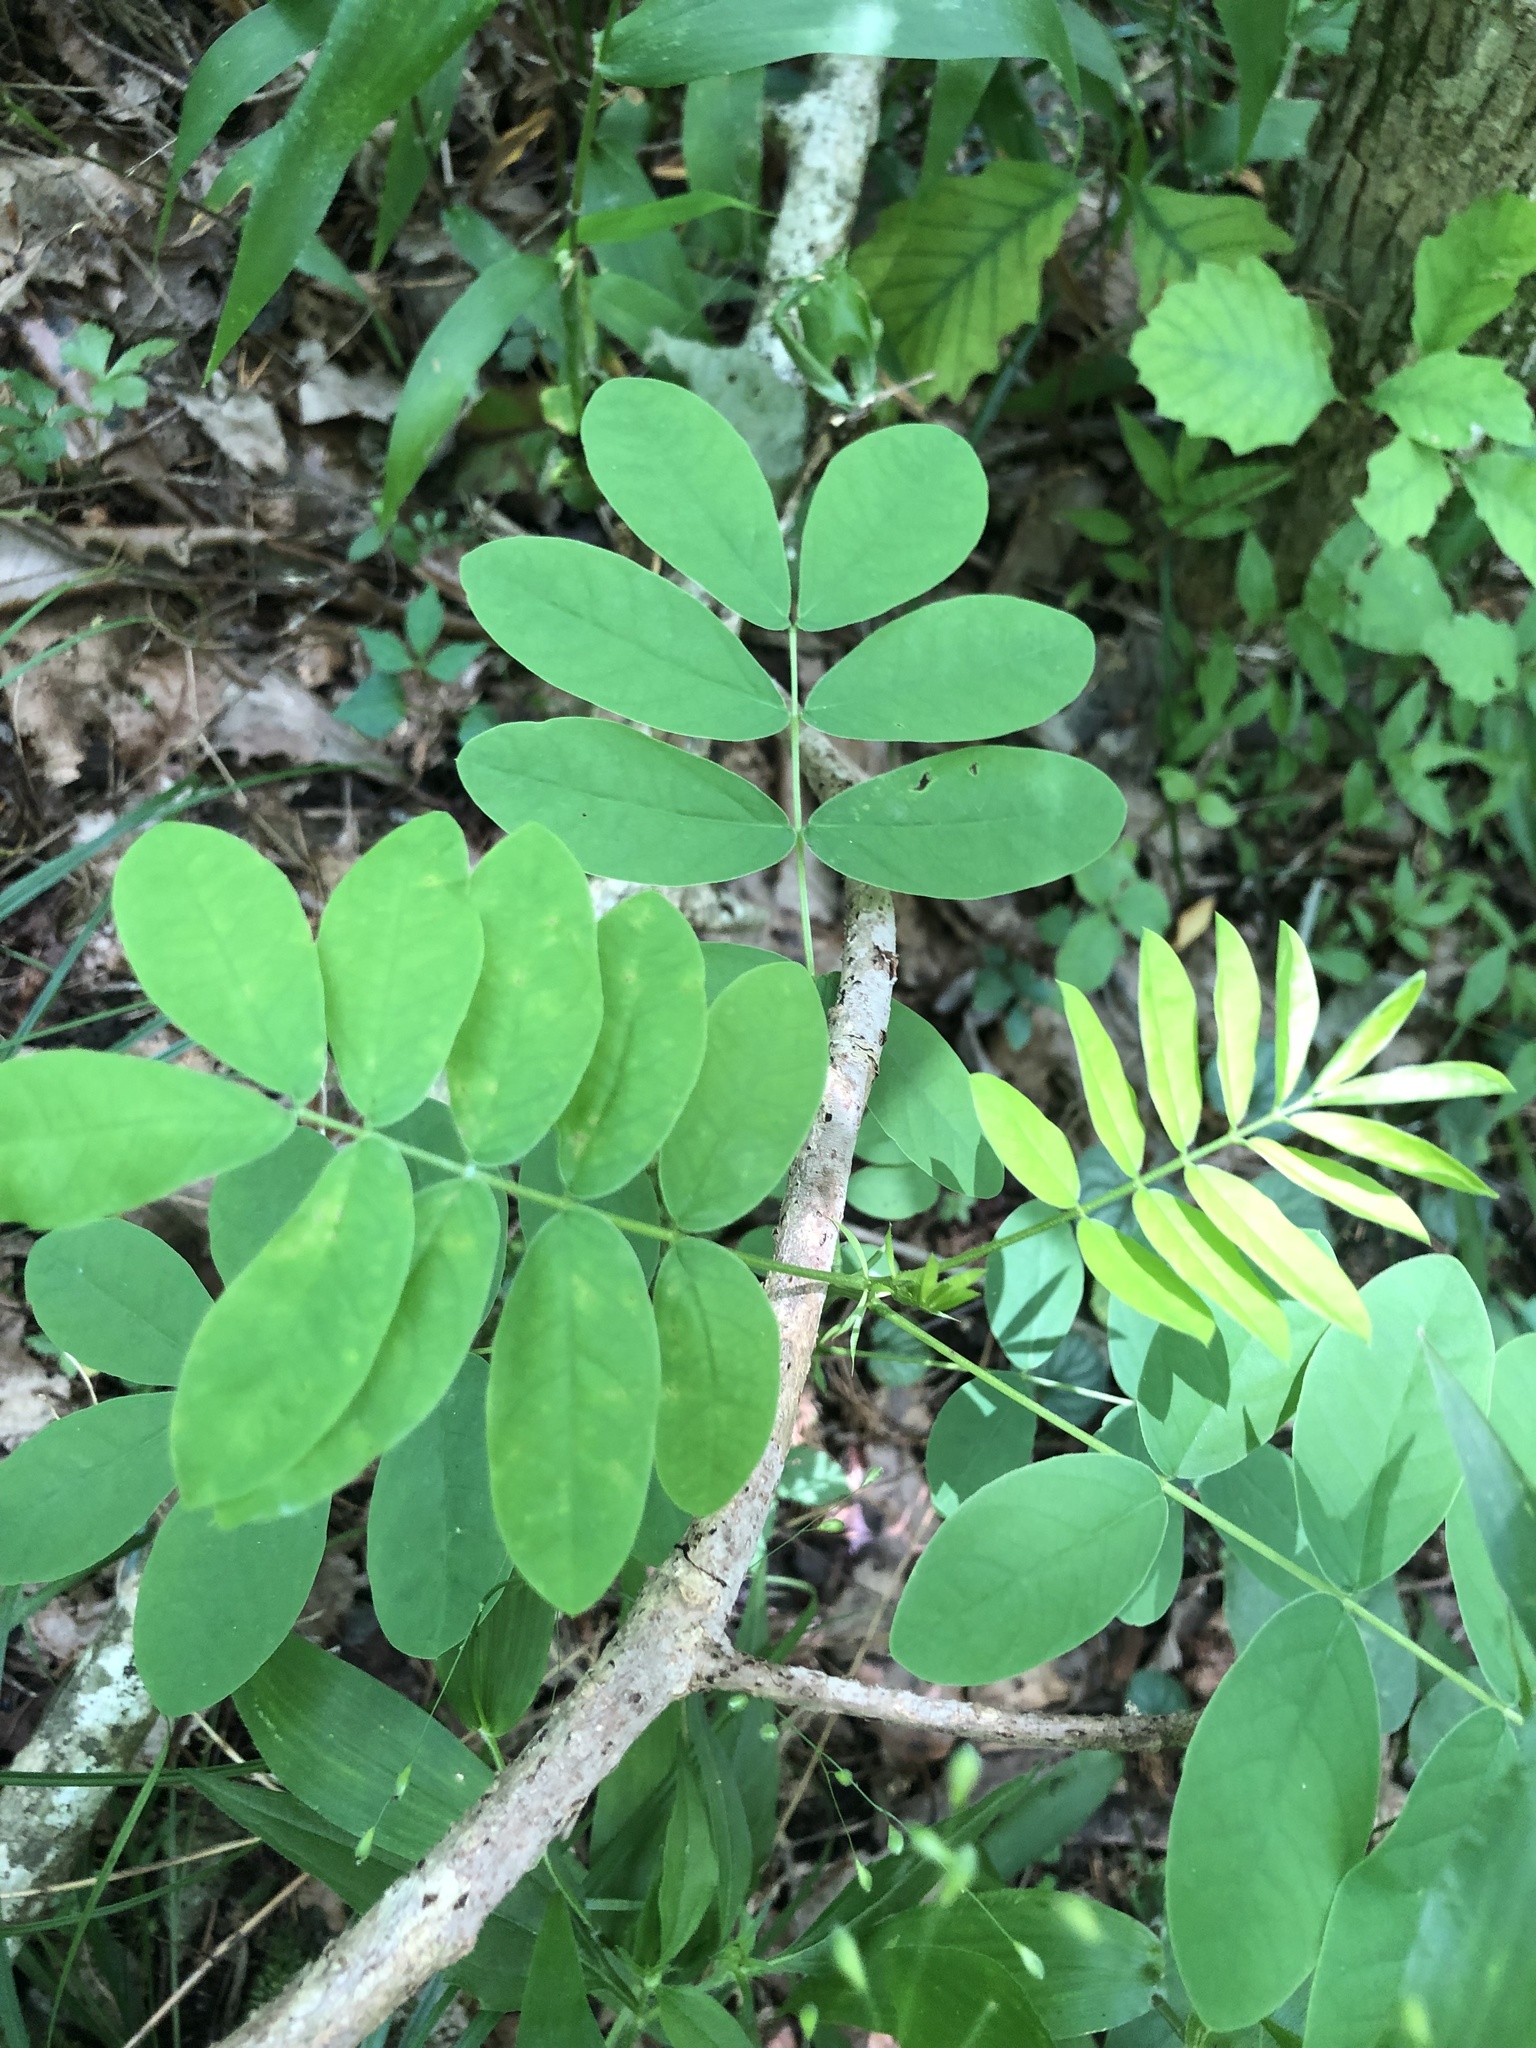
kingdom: Plantae
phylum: Tracheophyta
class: Magnoliopsida
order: Fabales
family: Fabaceae
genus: Senna
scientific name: Senna marilandica
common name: American senna
